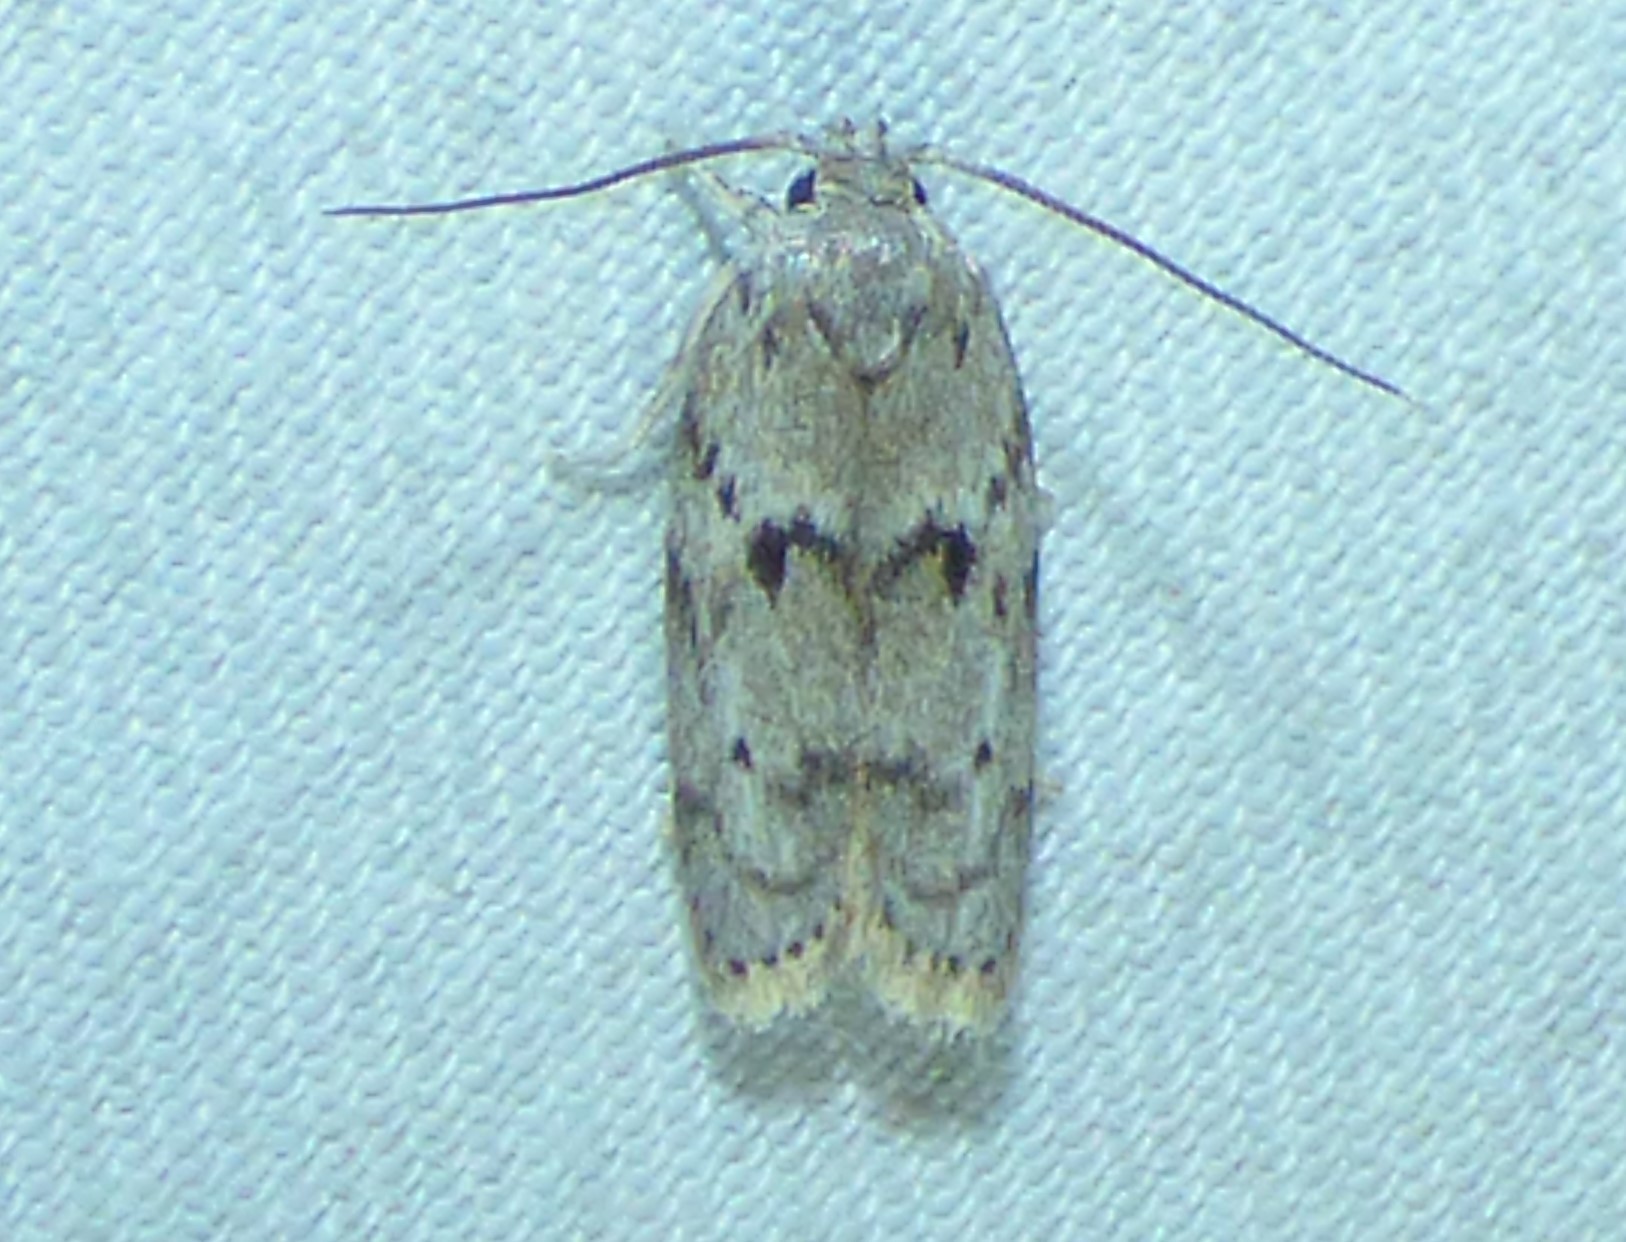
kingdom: Animalia
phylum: Arthropoda
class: Insecta
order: Lepidoptera
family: Depressariidae
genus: Antaeotricha
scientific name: Antaeotricha humilis
